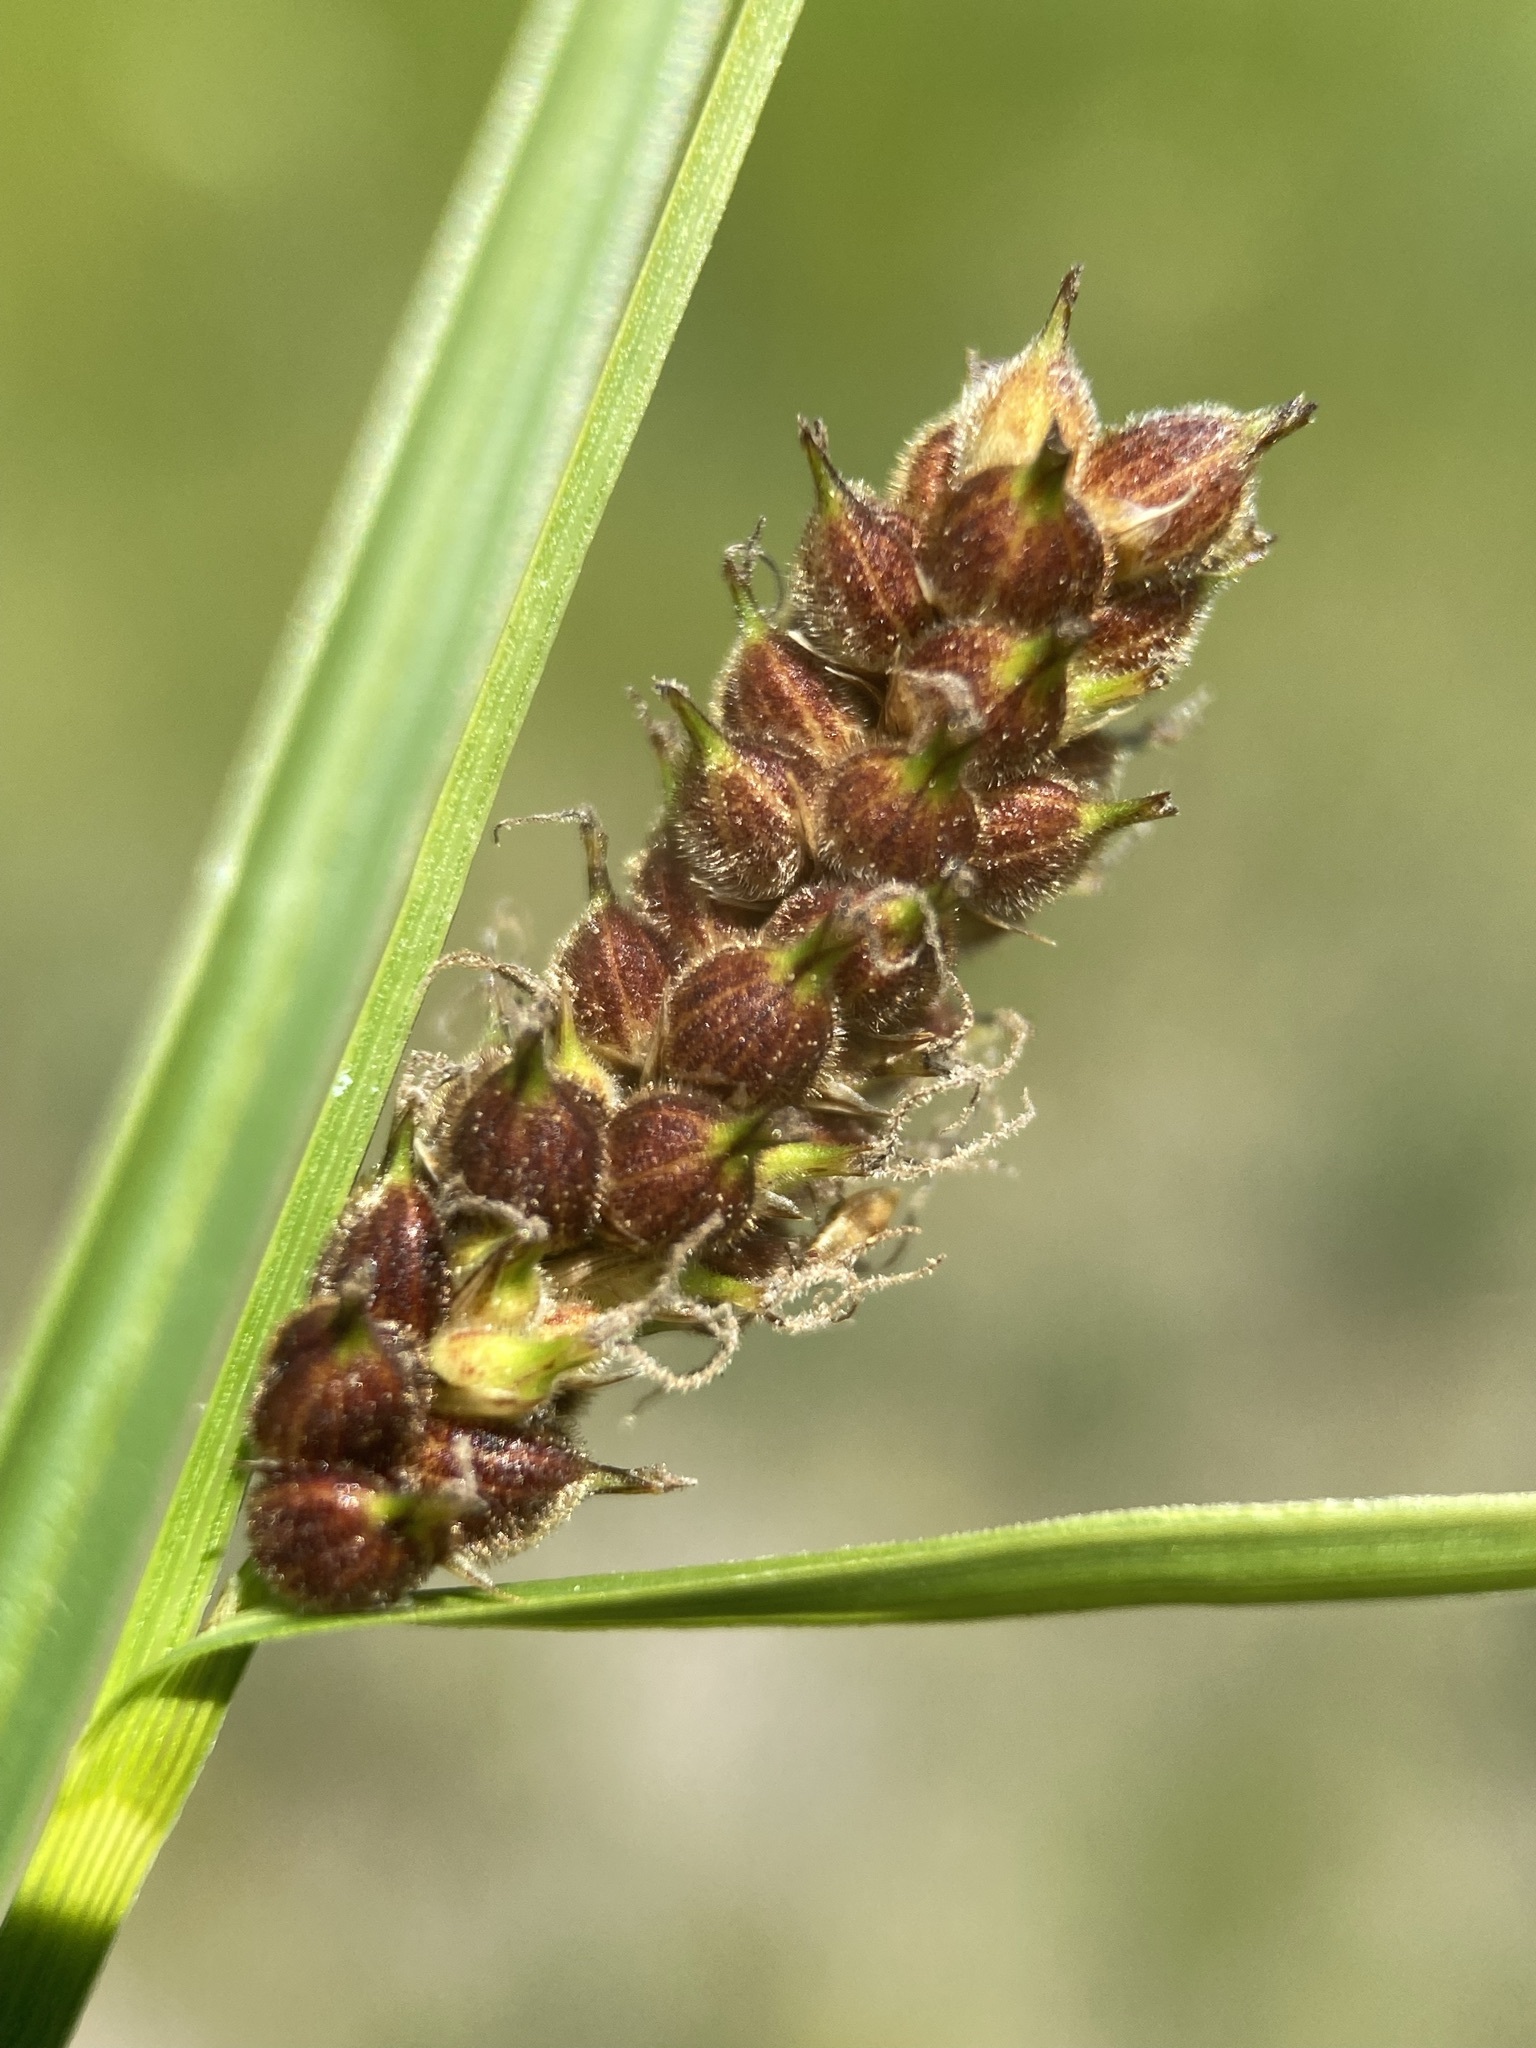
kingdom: Plantae
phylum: Tracheophyta
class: Liliopsida
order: Poales
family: Cyperaceae
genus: Carex
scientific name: Carex pellita
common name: Woolly sedge
